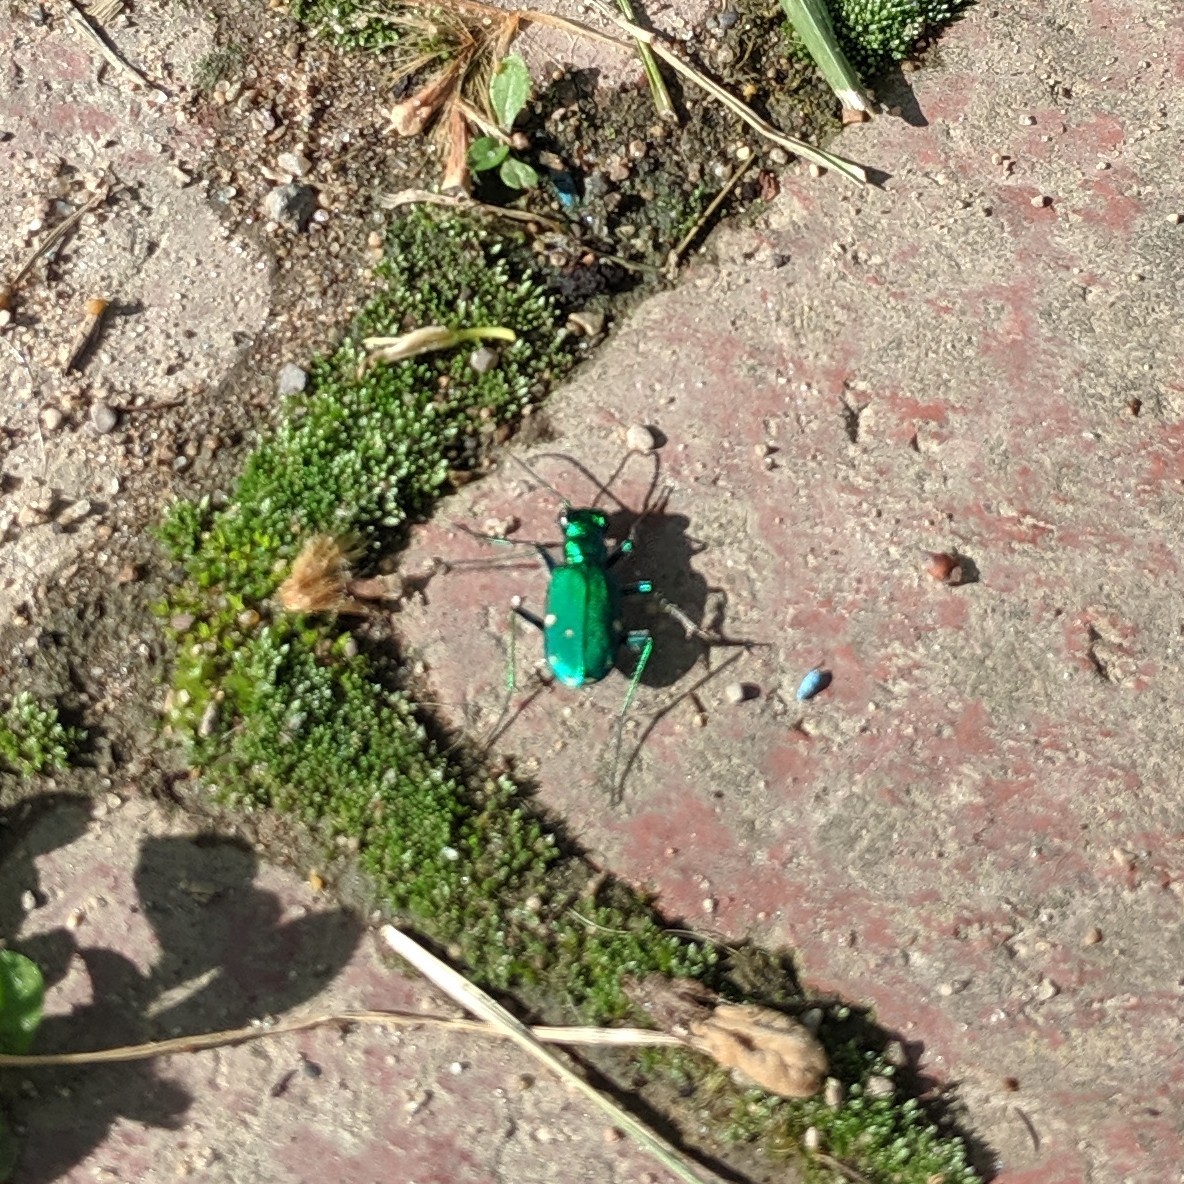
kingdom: Animalia
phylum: Arthropoda
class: Insecta
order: Coleoptera
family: Carabidae
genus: Cicindela
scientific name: Cicindela sexguttata
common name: Six-spotted tiger beetle
